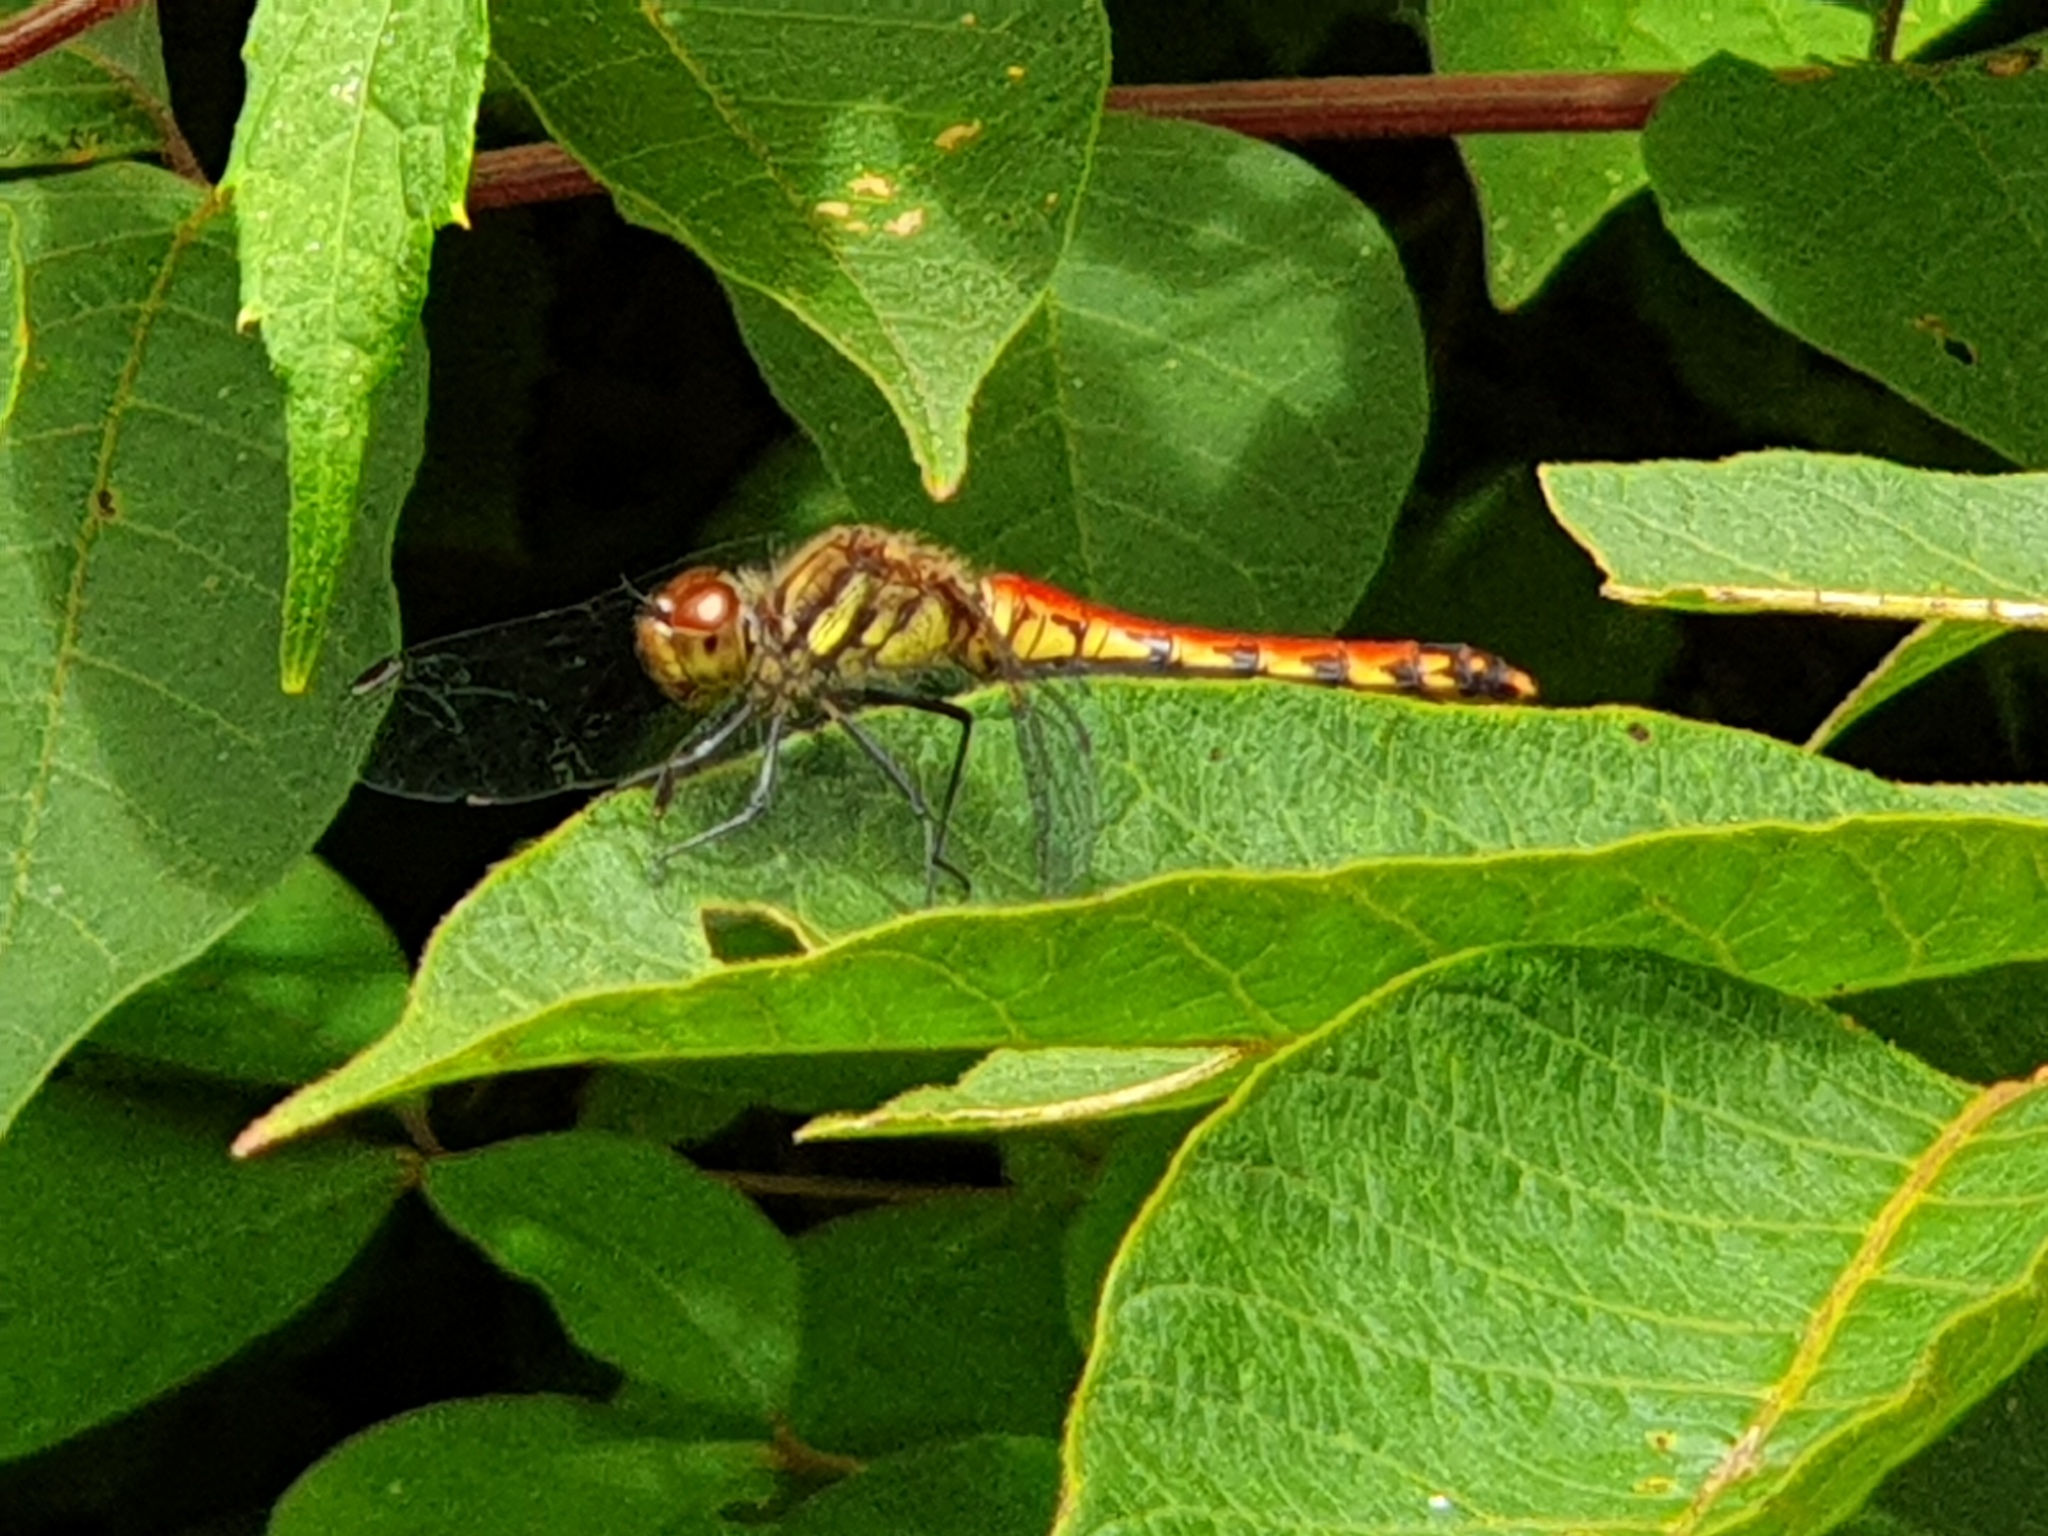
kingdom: Animalia
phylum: Arthropoda
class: Insecta
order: Odonata
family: Libellulidae
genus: Sympetrum
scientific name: Sympetrum darwinianum
